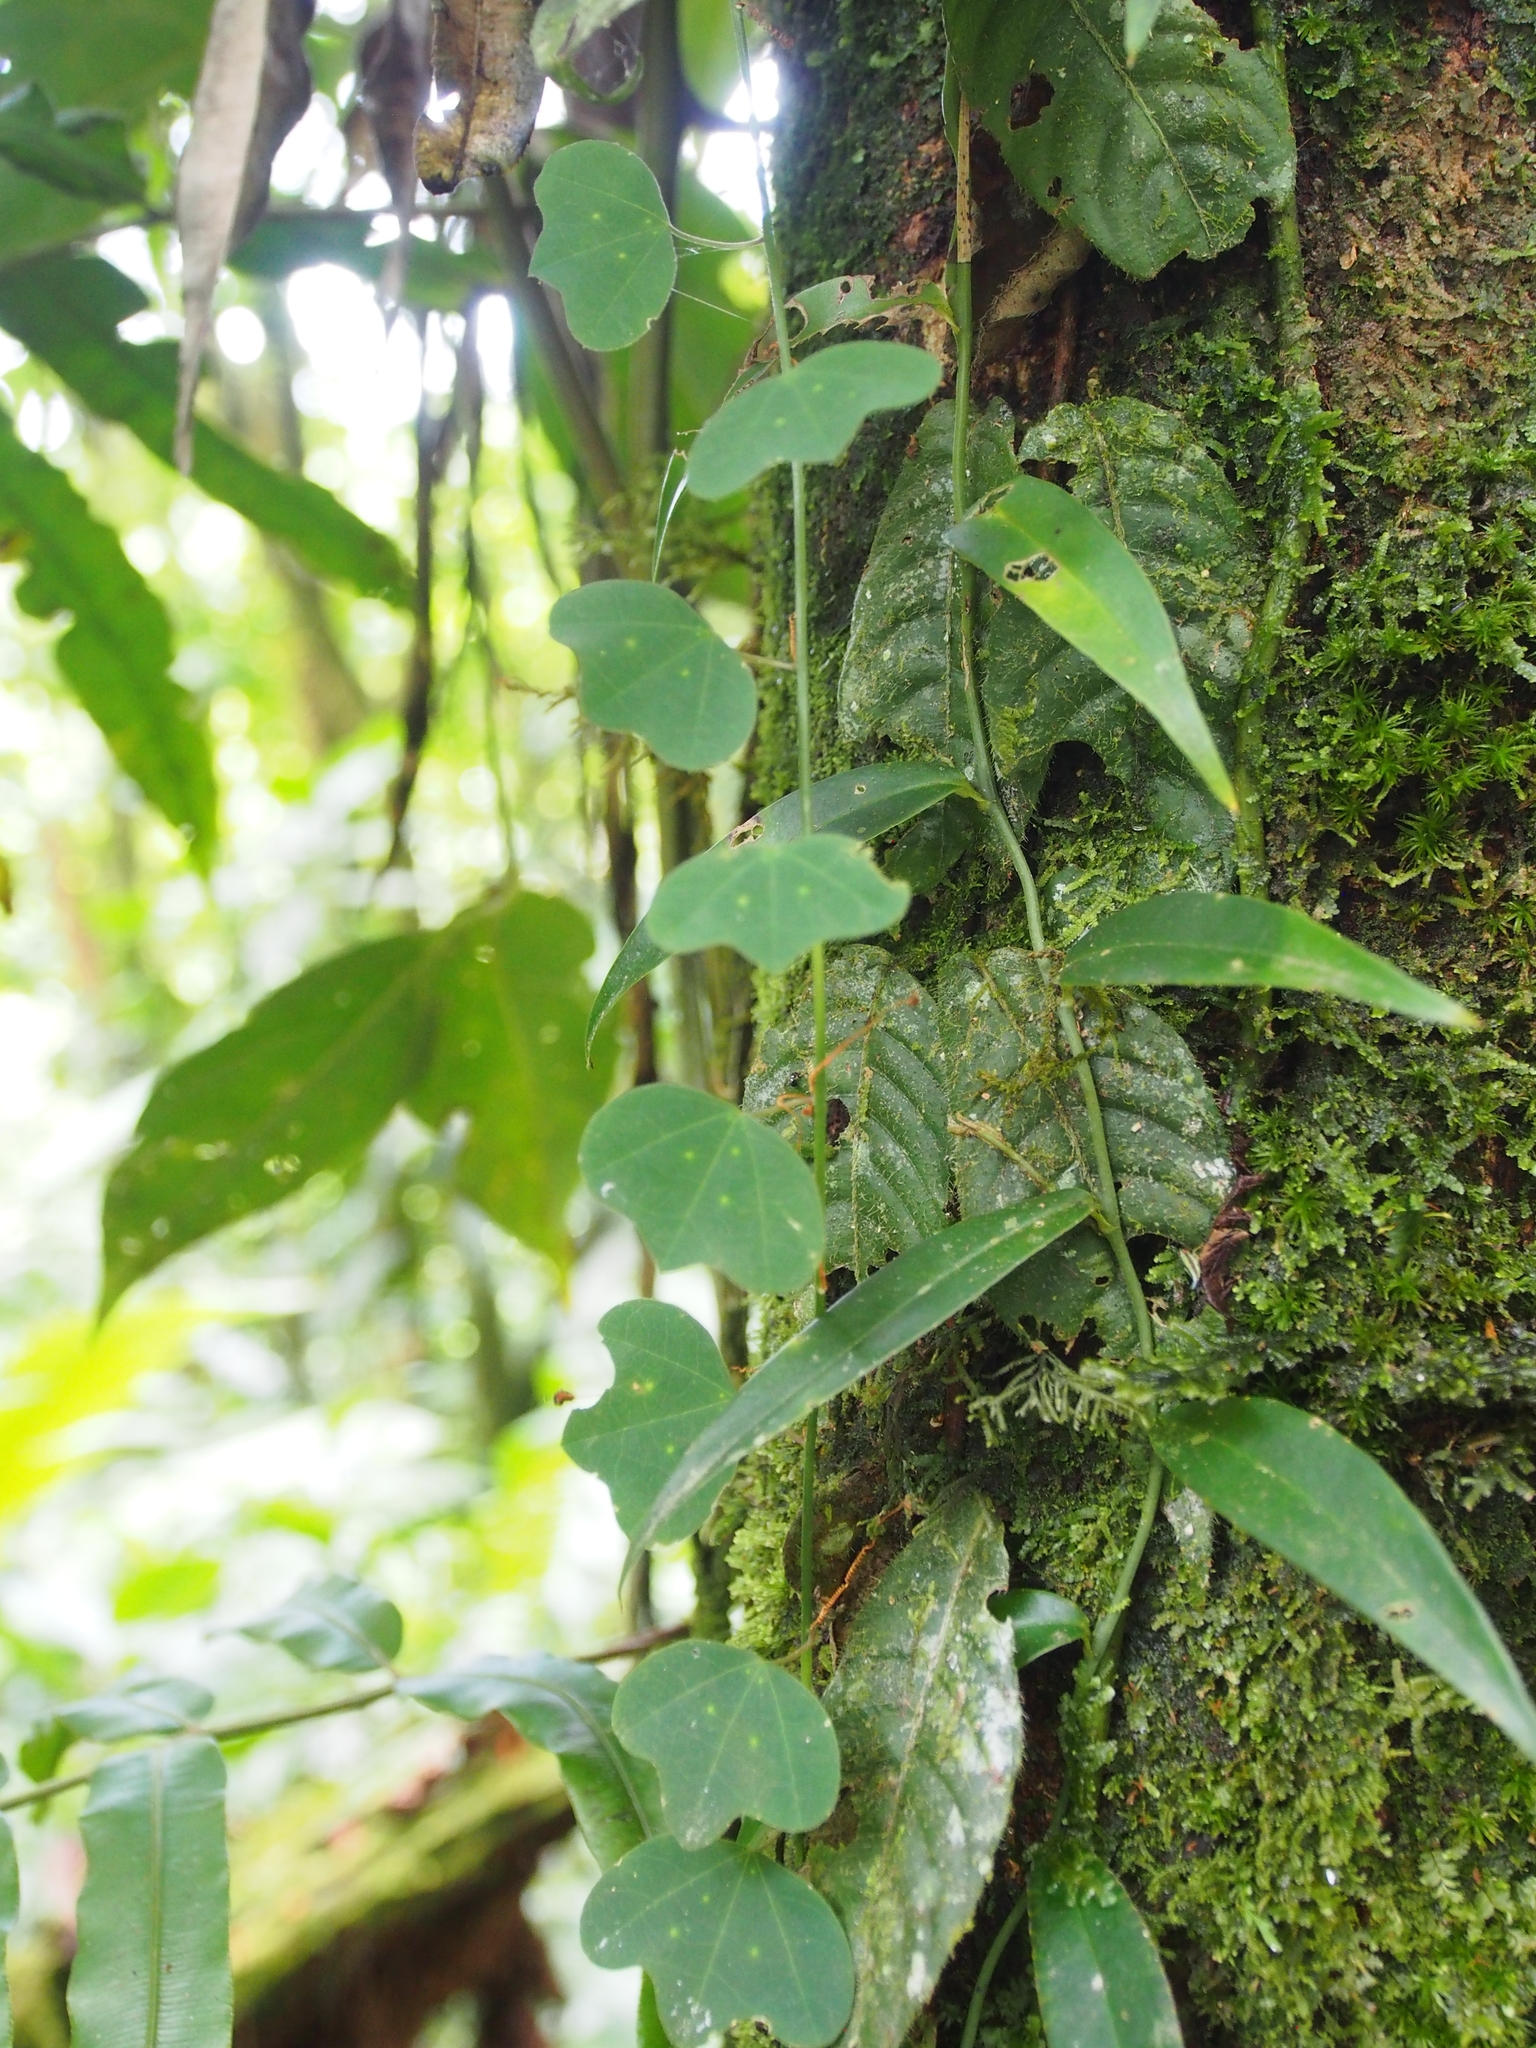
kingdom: Plantae
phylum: Tracheophyta
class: Magnoliopsida
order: Malpighiales
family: Passifloraceae
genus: Passiflora
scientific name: Passiflora lancearia
